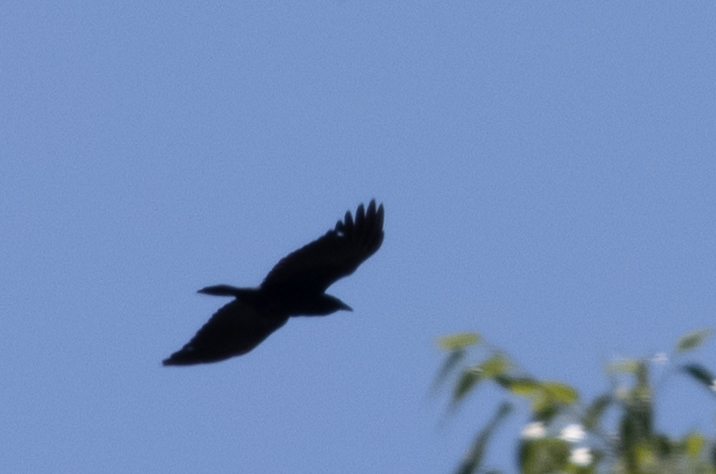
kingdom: Animalia
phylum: Chordata
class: Aves
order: Passeriformes
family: Corvidae
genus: Corvus
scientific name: Corvus
